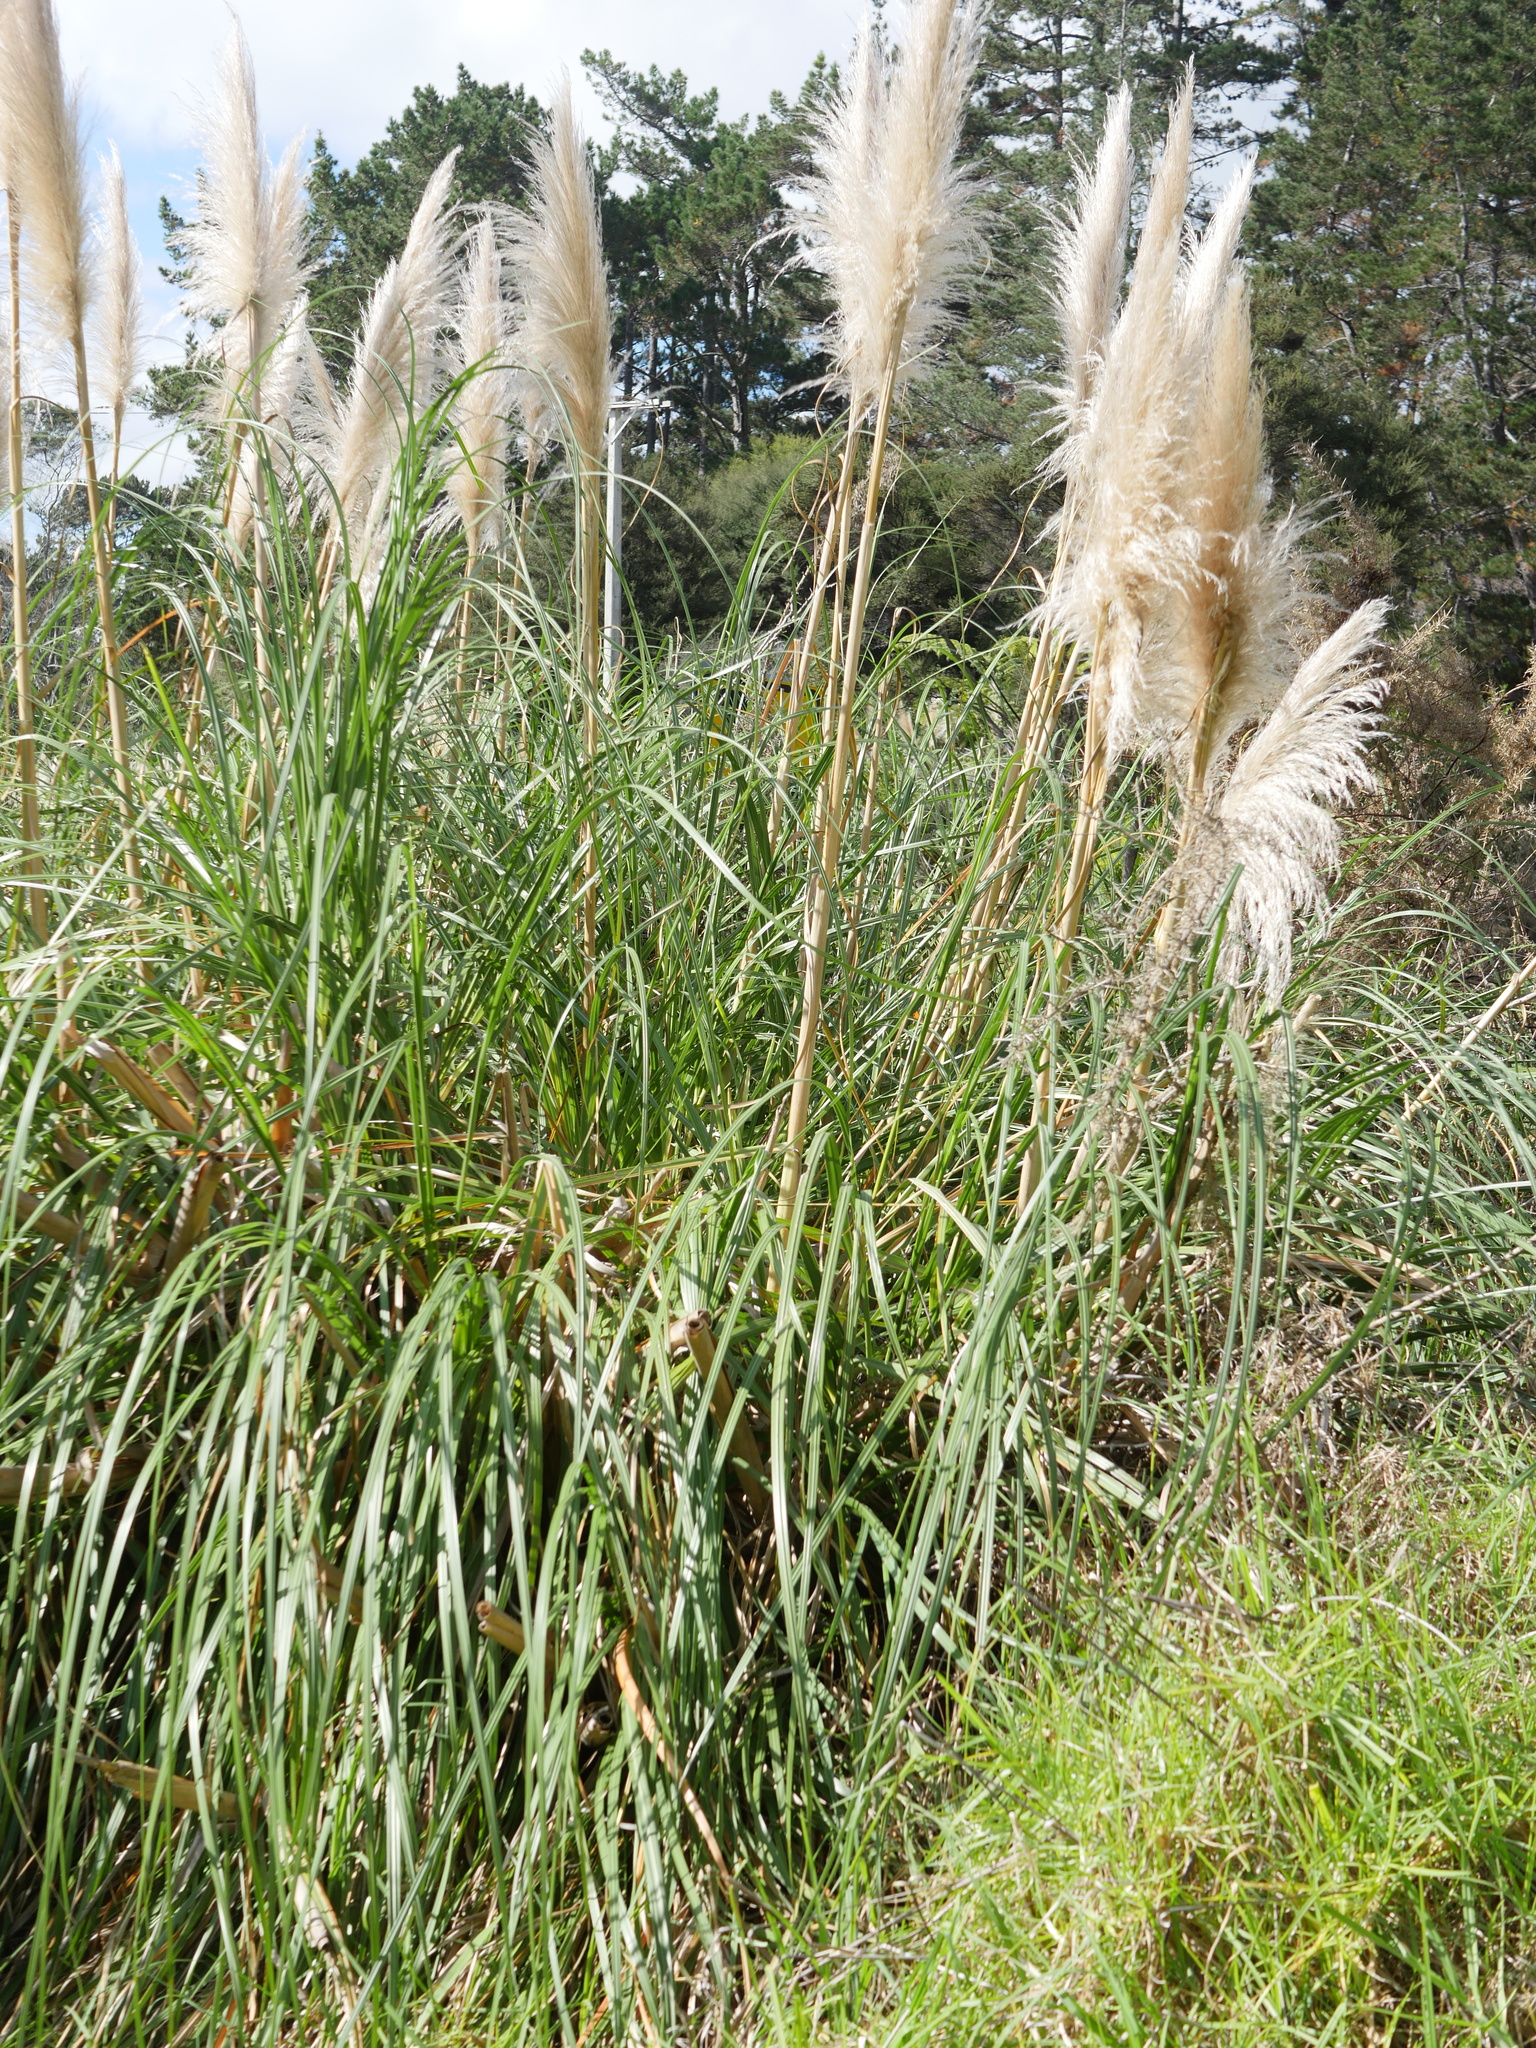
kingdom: Plantae
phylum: Tracheophyta
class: Liliopsida
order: Poales
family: Poaceae
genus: Cortaderia
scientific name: Cortaderia jubata
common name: Purple pampas grass
